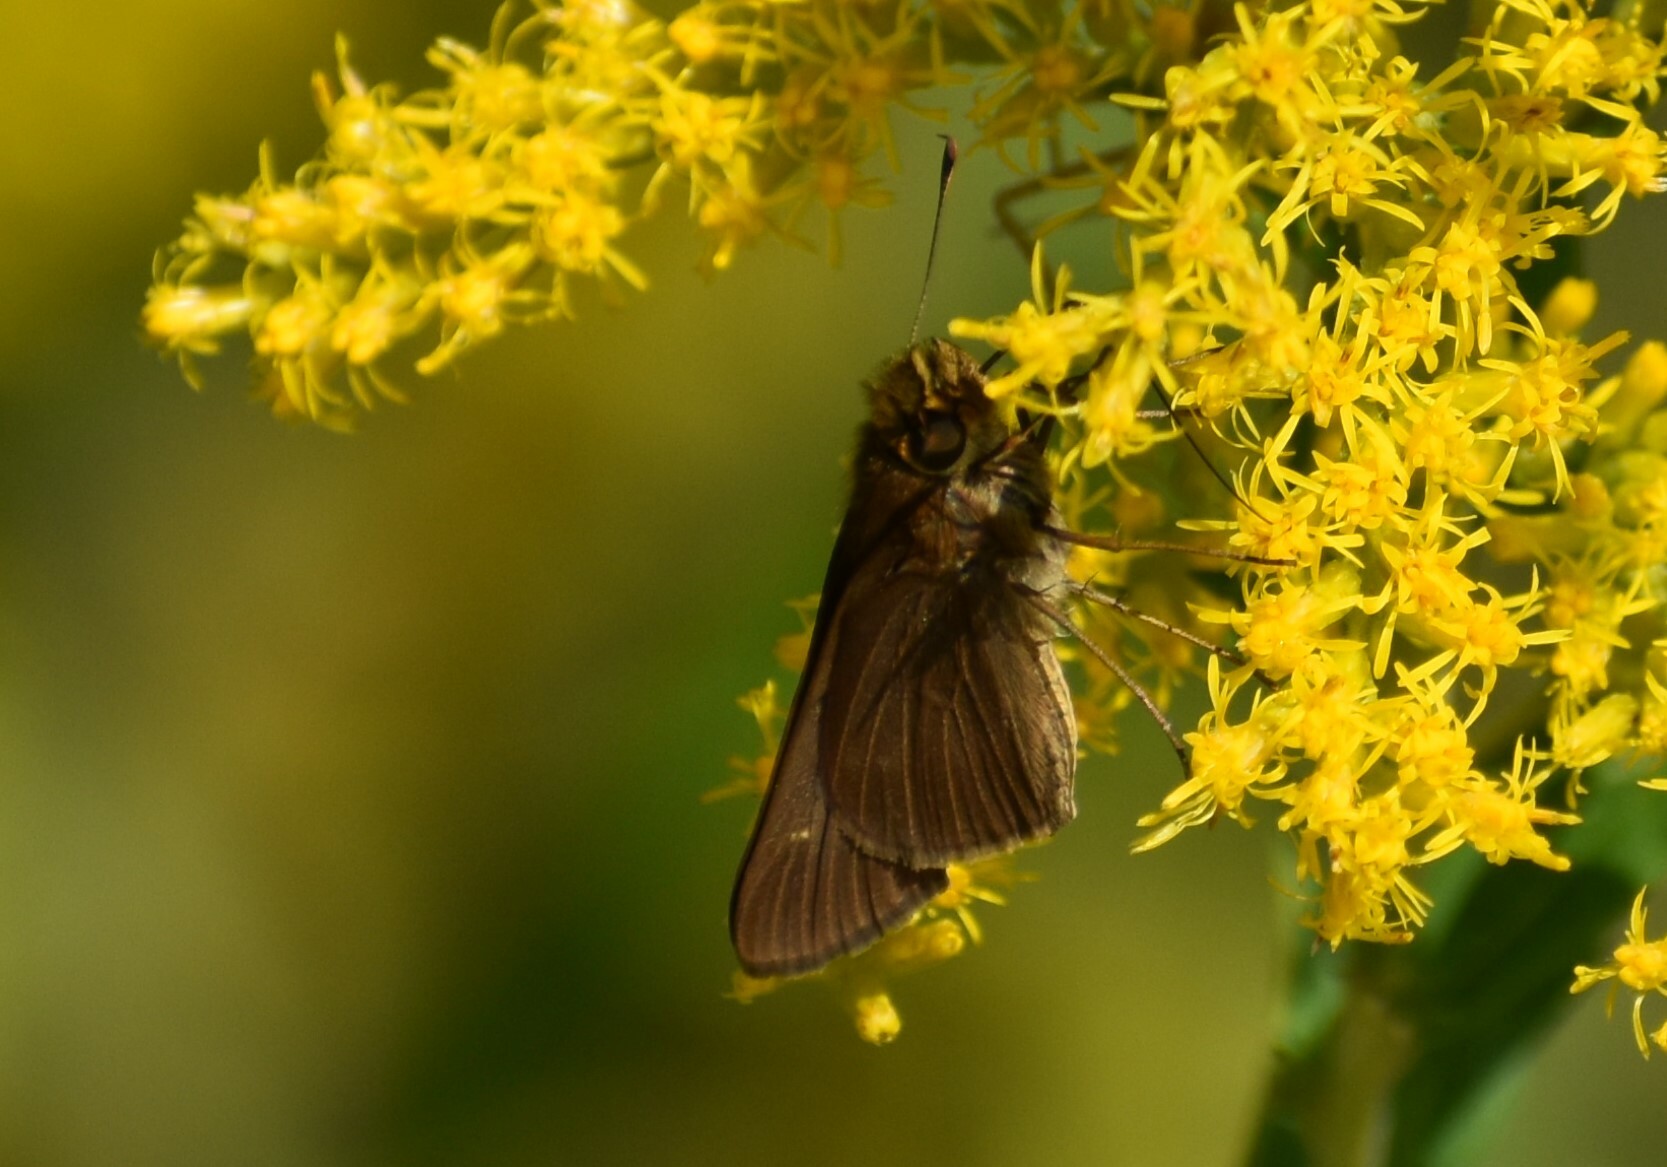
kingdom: Animalia
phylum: Arthropoda
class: Insecta
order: Lepidoptera
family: Hesperiidae
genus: Panoquina
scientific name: Panoquina ocola
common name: Ocola skipper
